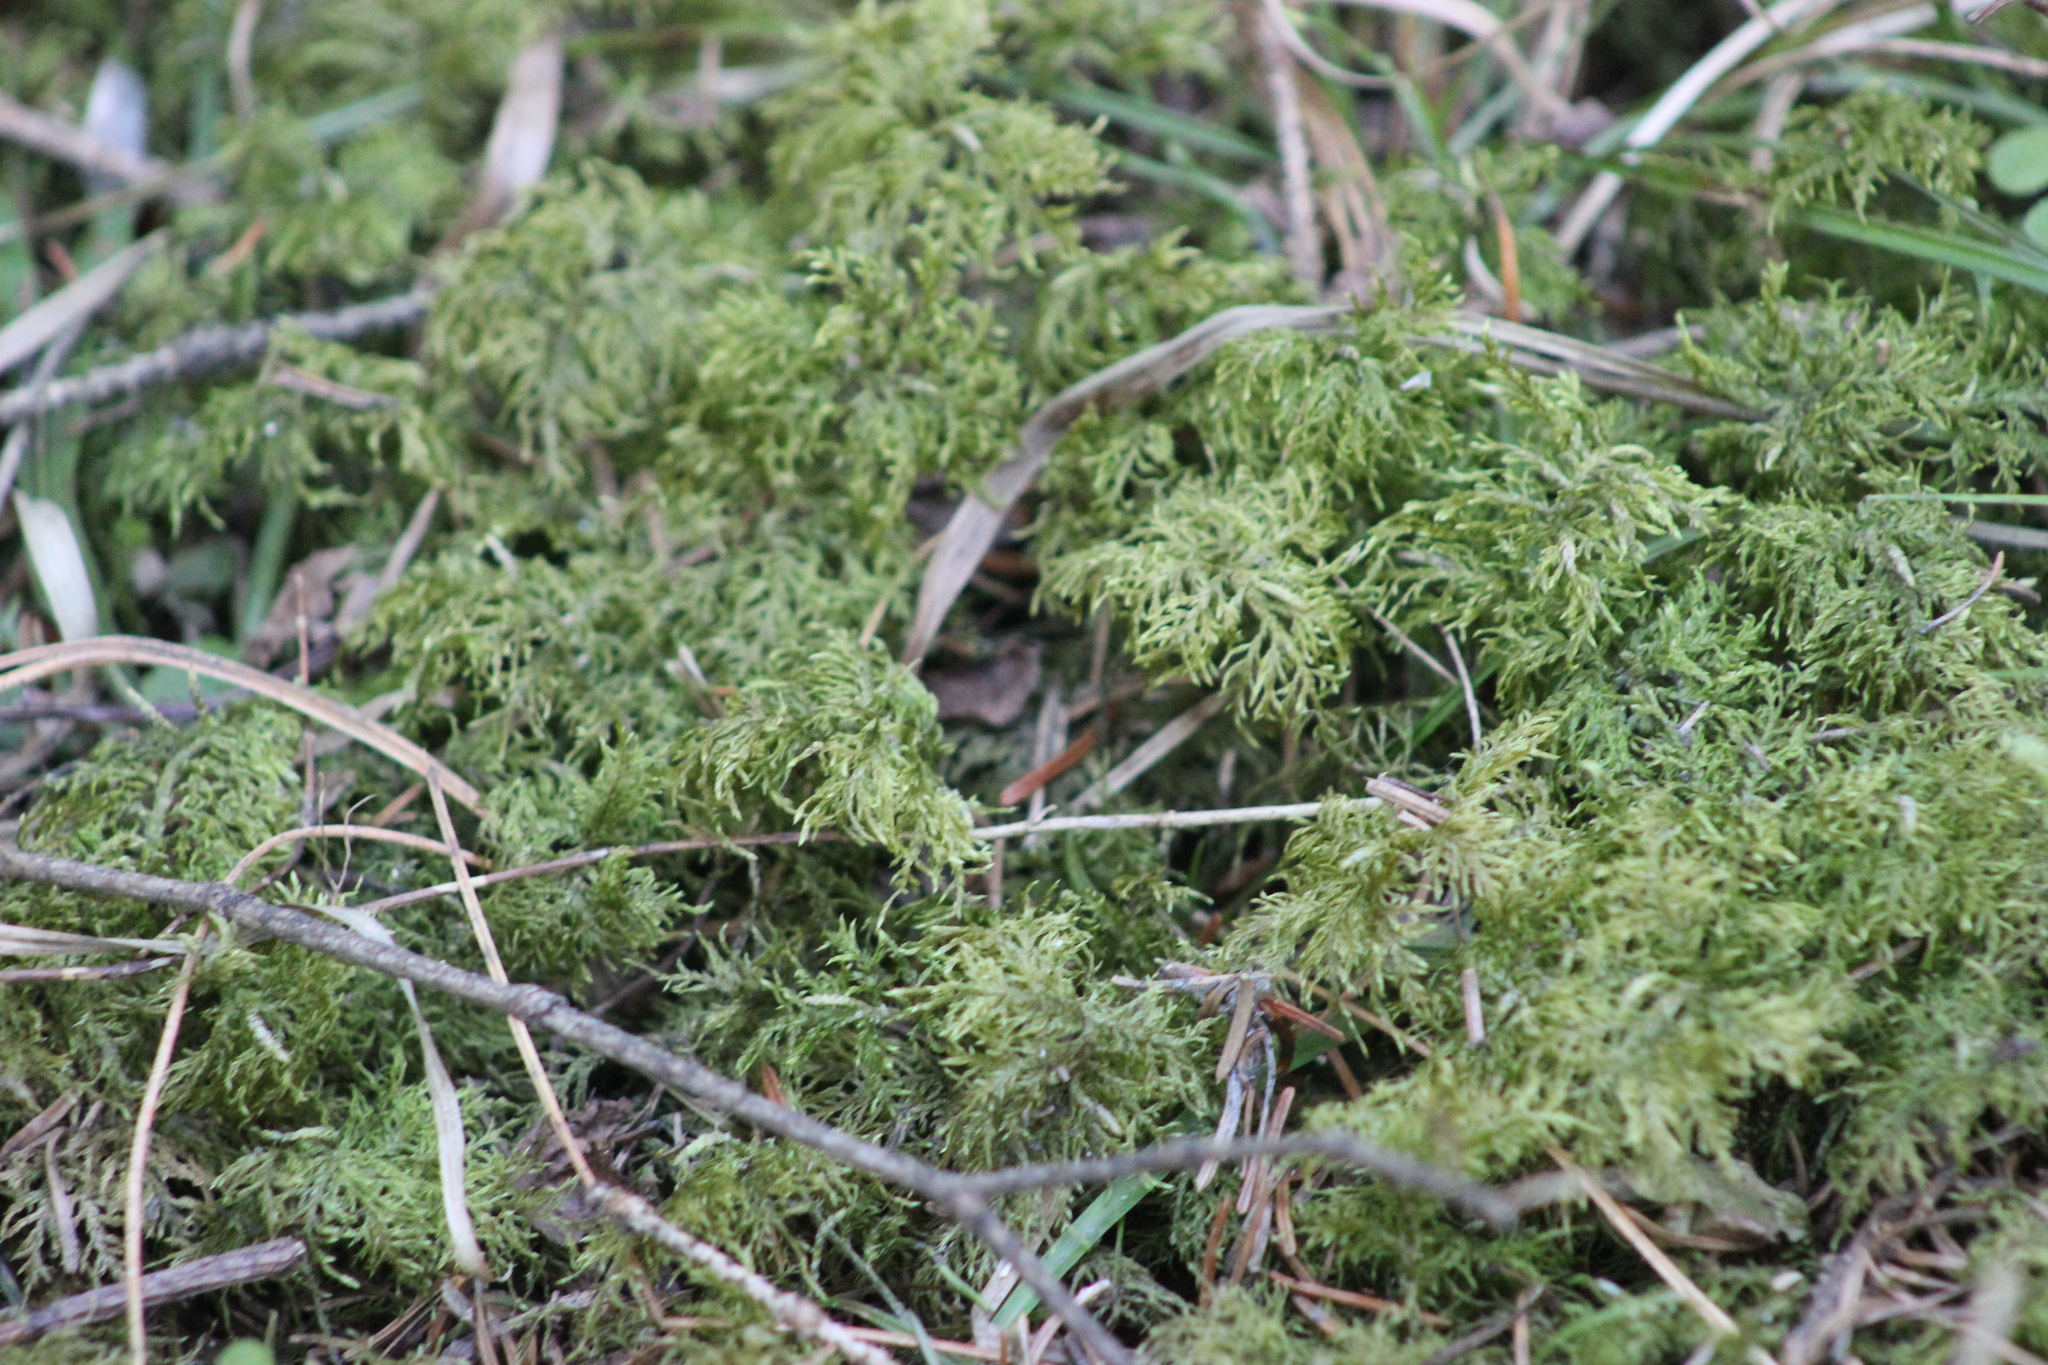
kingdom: Plantae
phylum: Bryophyta
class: Bryopsida
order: Hypnales
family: Hylocomiaceae
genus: Hylocomium
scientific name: Hylocomium splendens
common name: Stairstep moss
